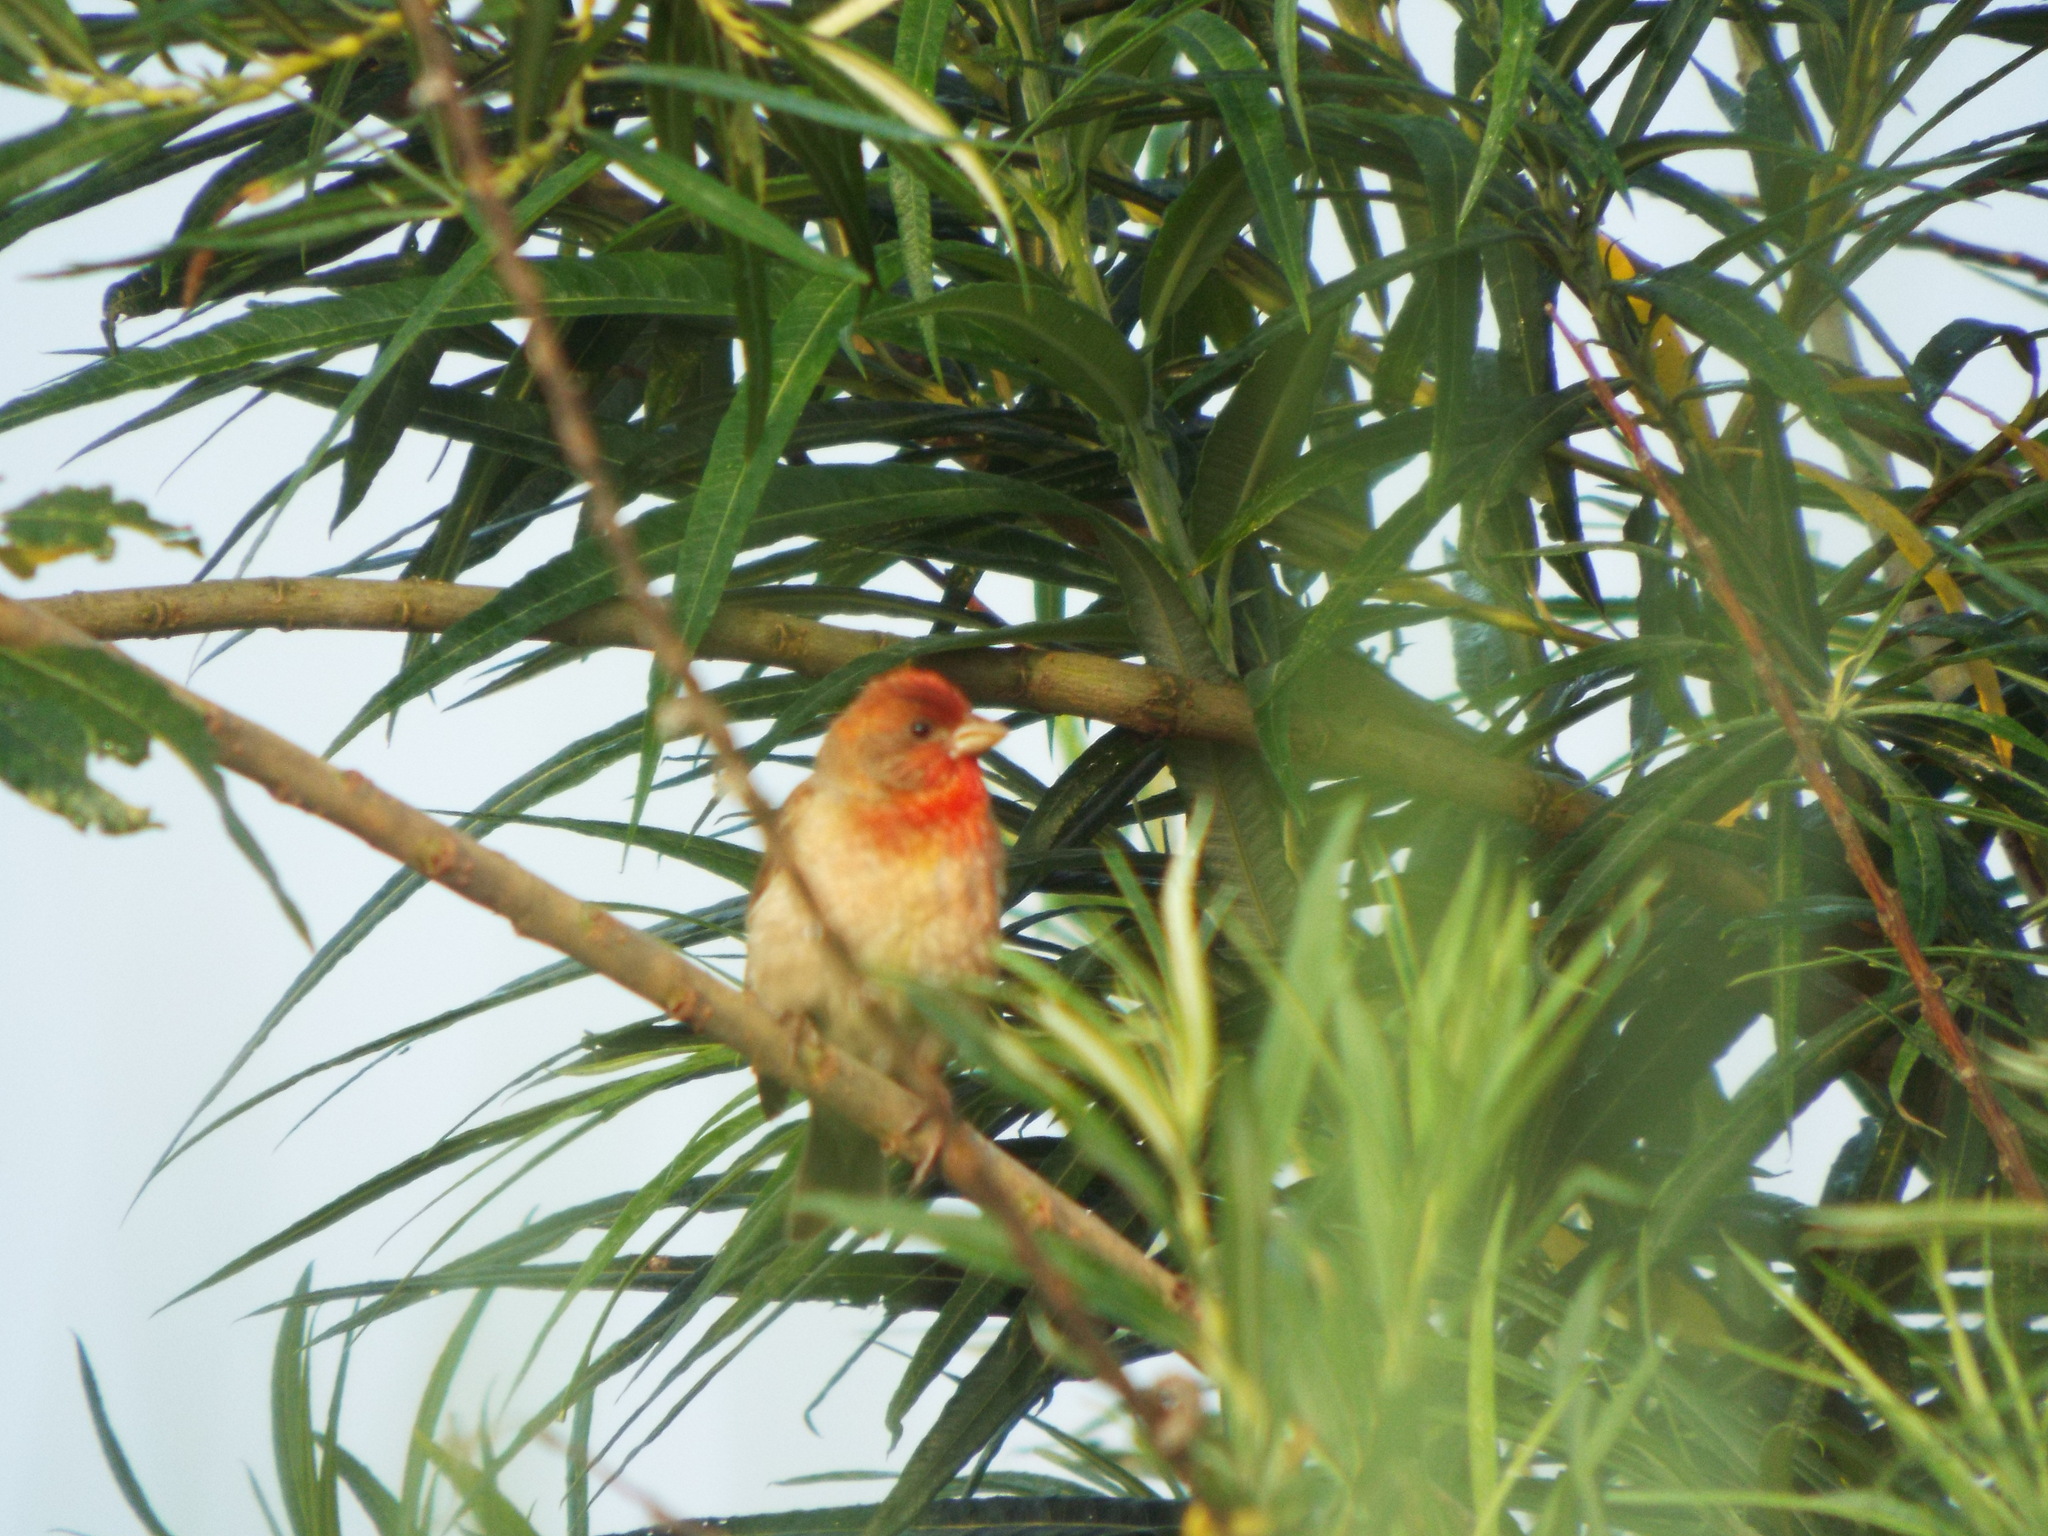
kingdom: Animalia
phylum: Chordata
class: Aves
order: Passeriformes
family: Fringillidae
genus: Carpodacus
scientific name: Carpodacus erythrinus
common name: Common rosefinch
